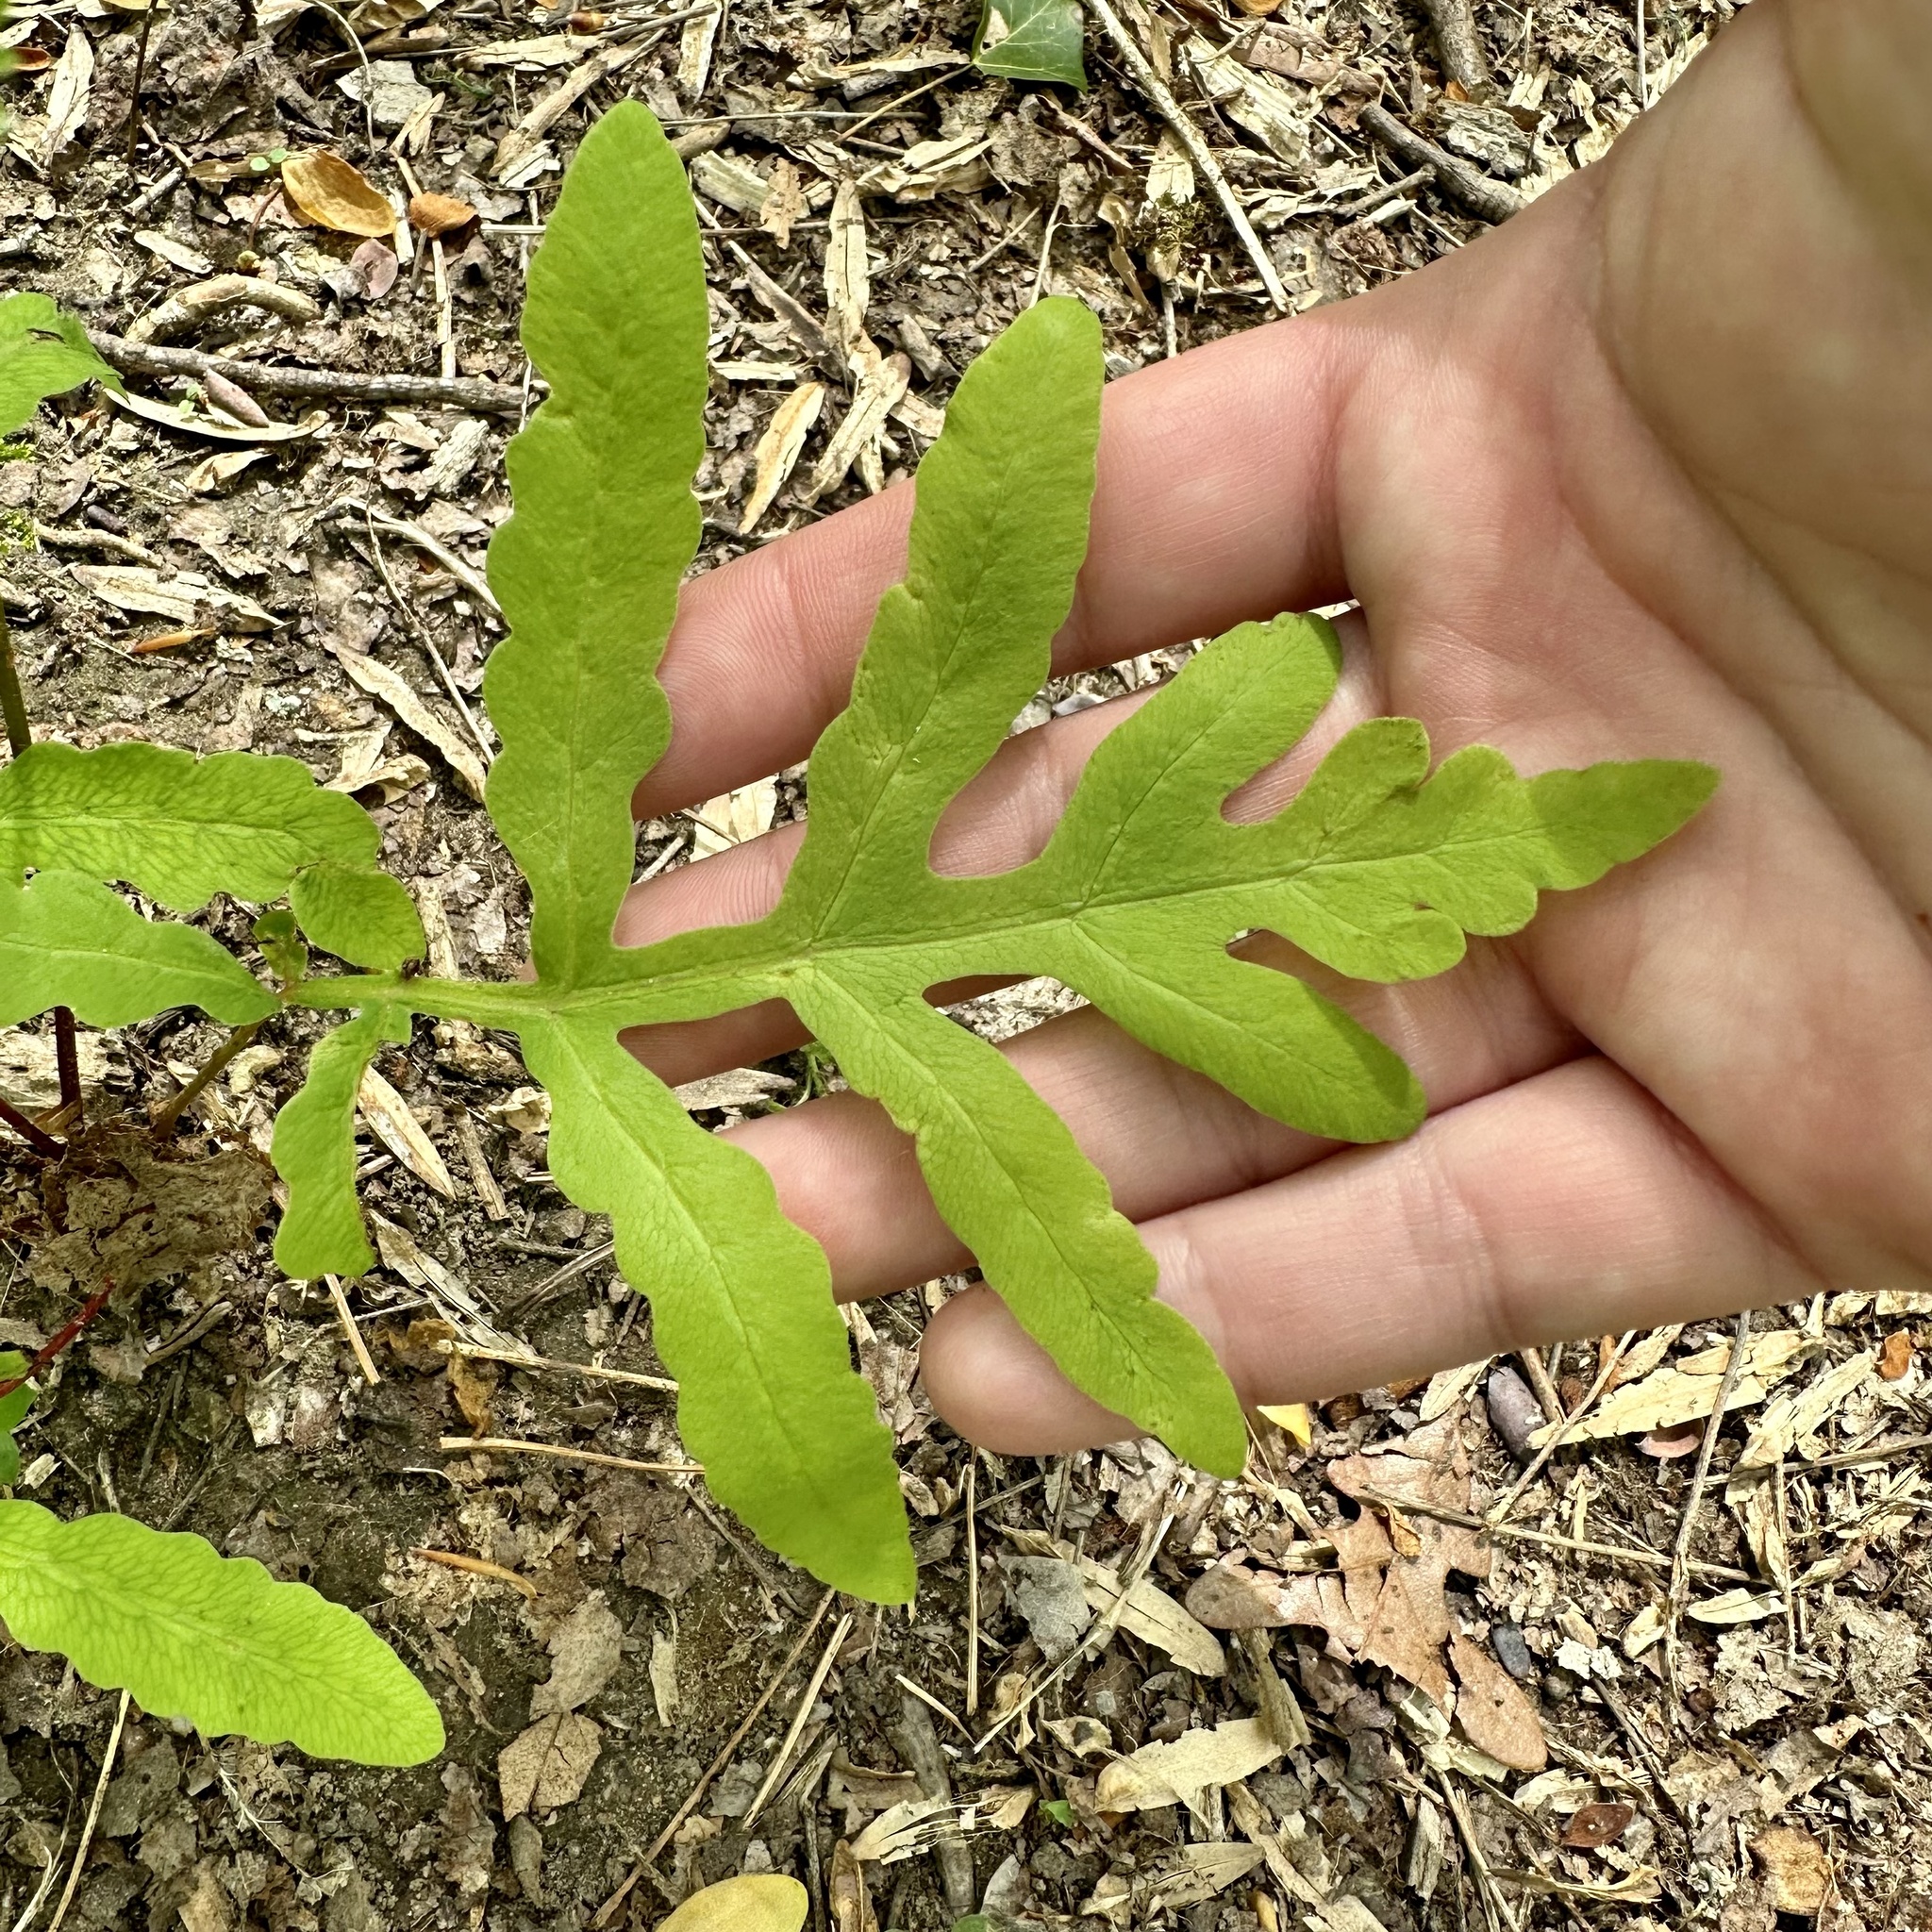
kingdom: Plantae
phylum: Tracheophyta
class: Polypodiopsida
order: Polypodiales
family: Onocleaceae
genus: Onoclea
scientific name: Onoclea sensibilis
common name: Sensitive fern
